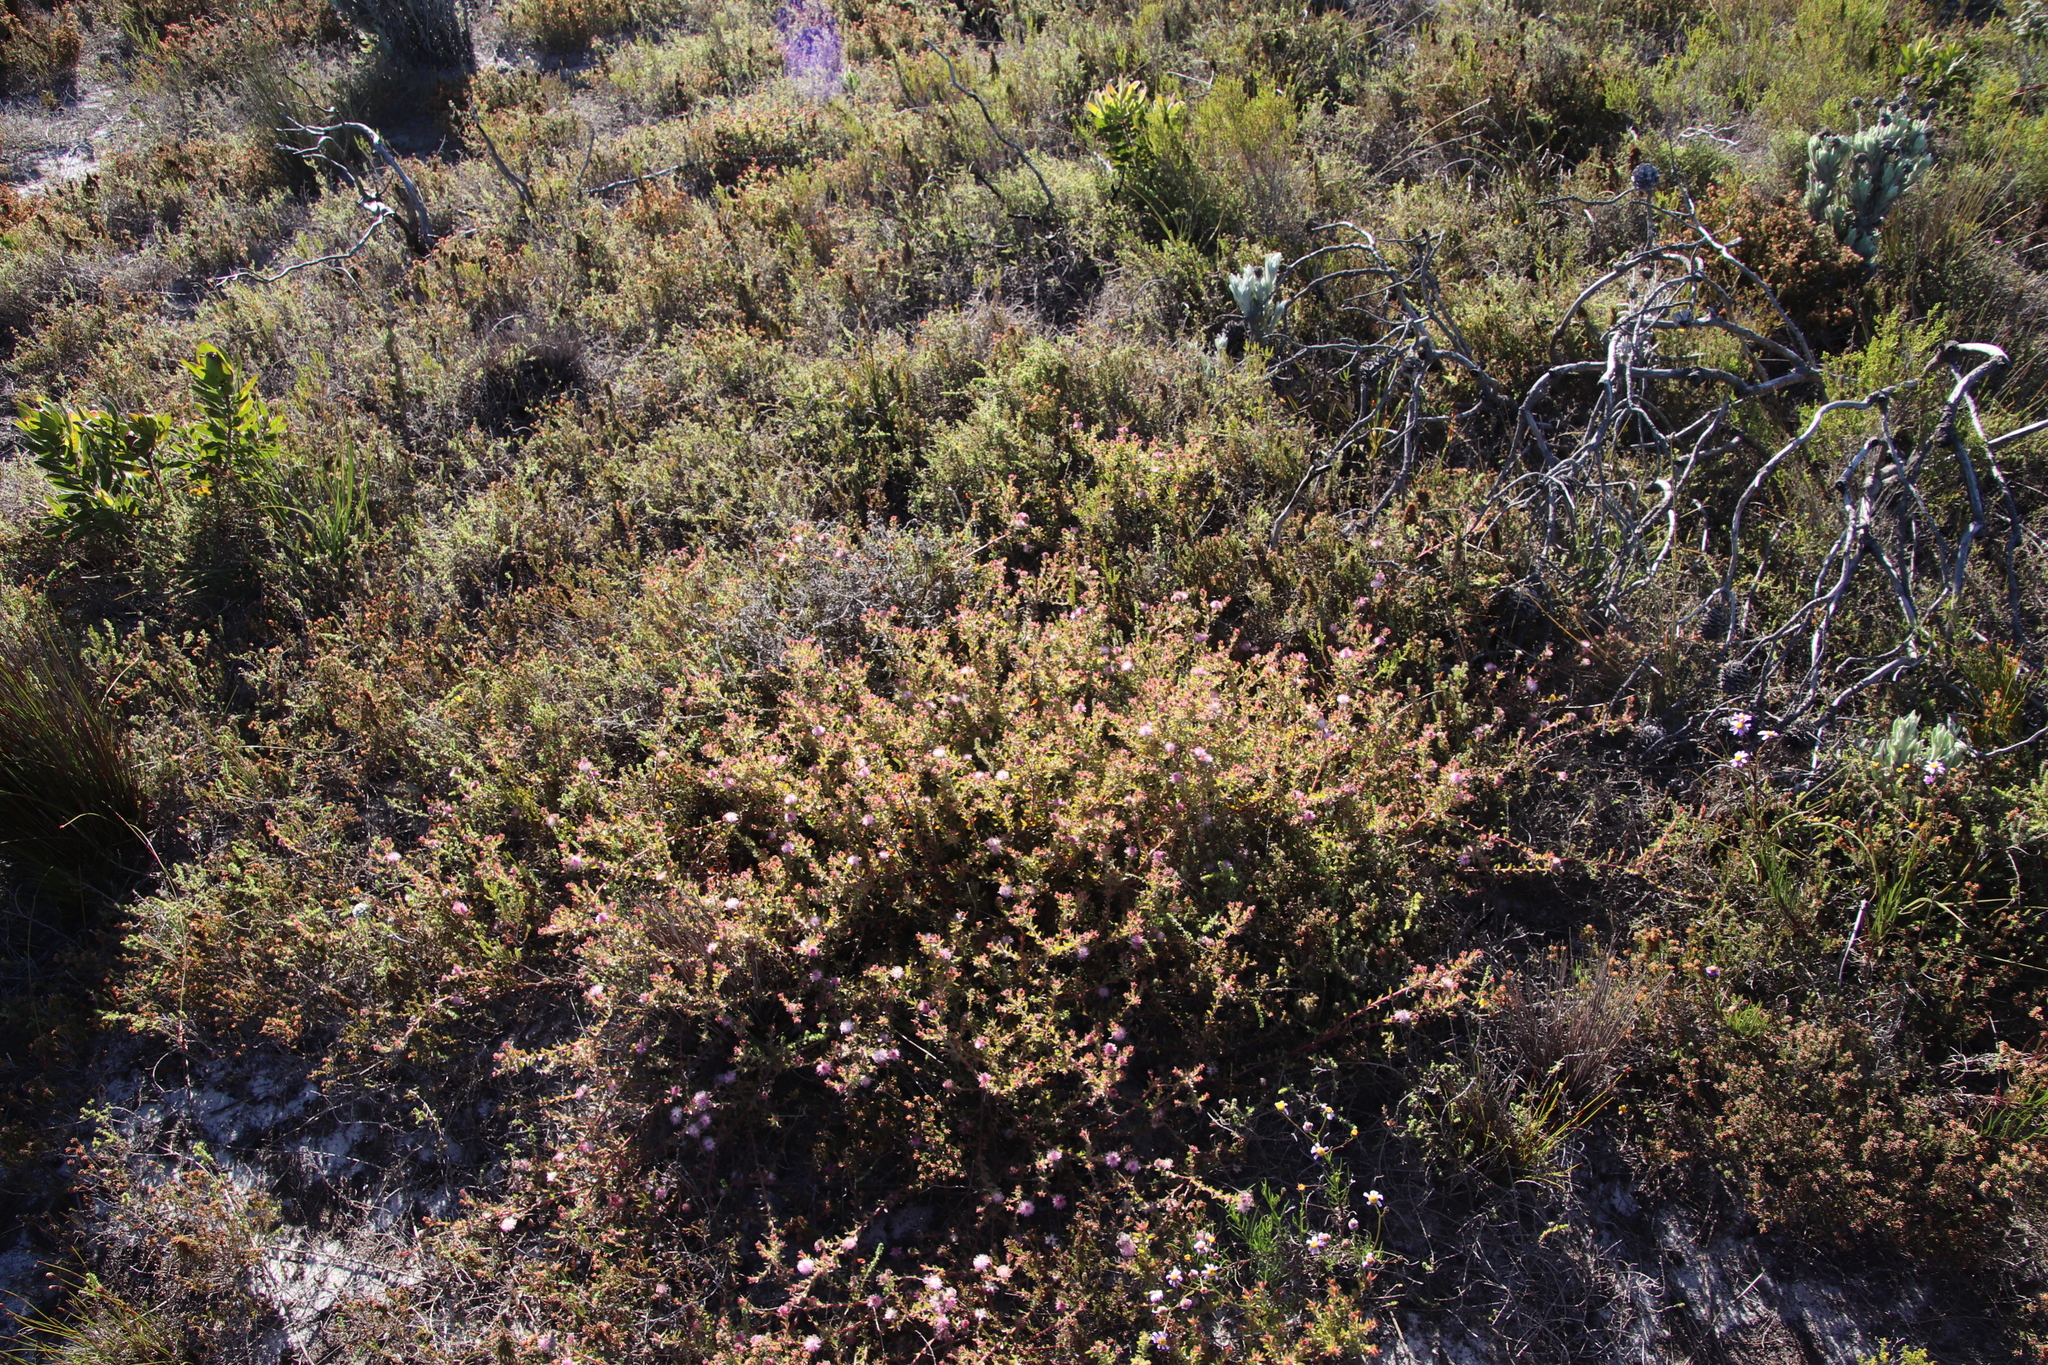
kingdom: Plantae
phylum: Tracheophyta
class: Magnoliopsida
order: Proteales
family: Proteaceae
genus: Diastella
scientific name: Diastella divaricata
